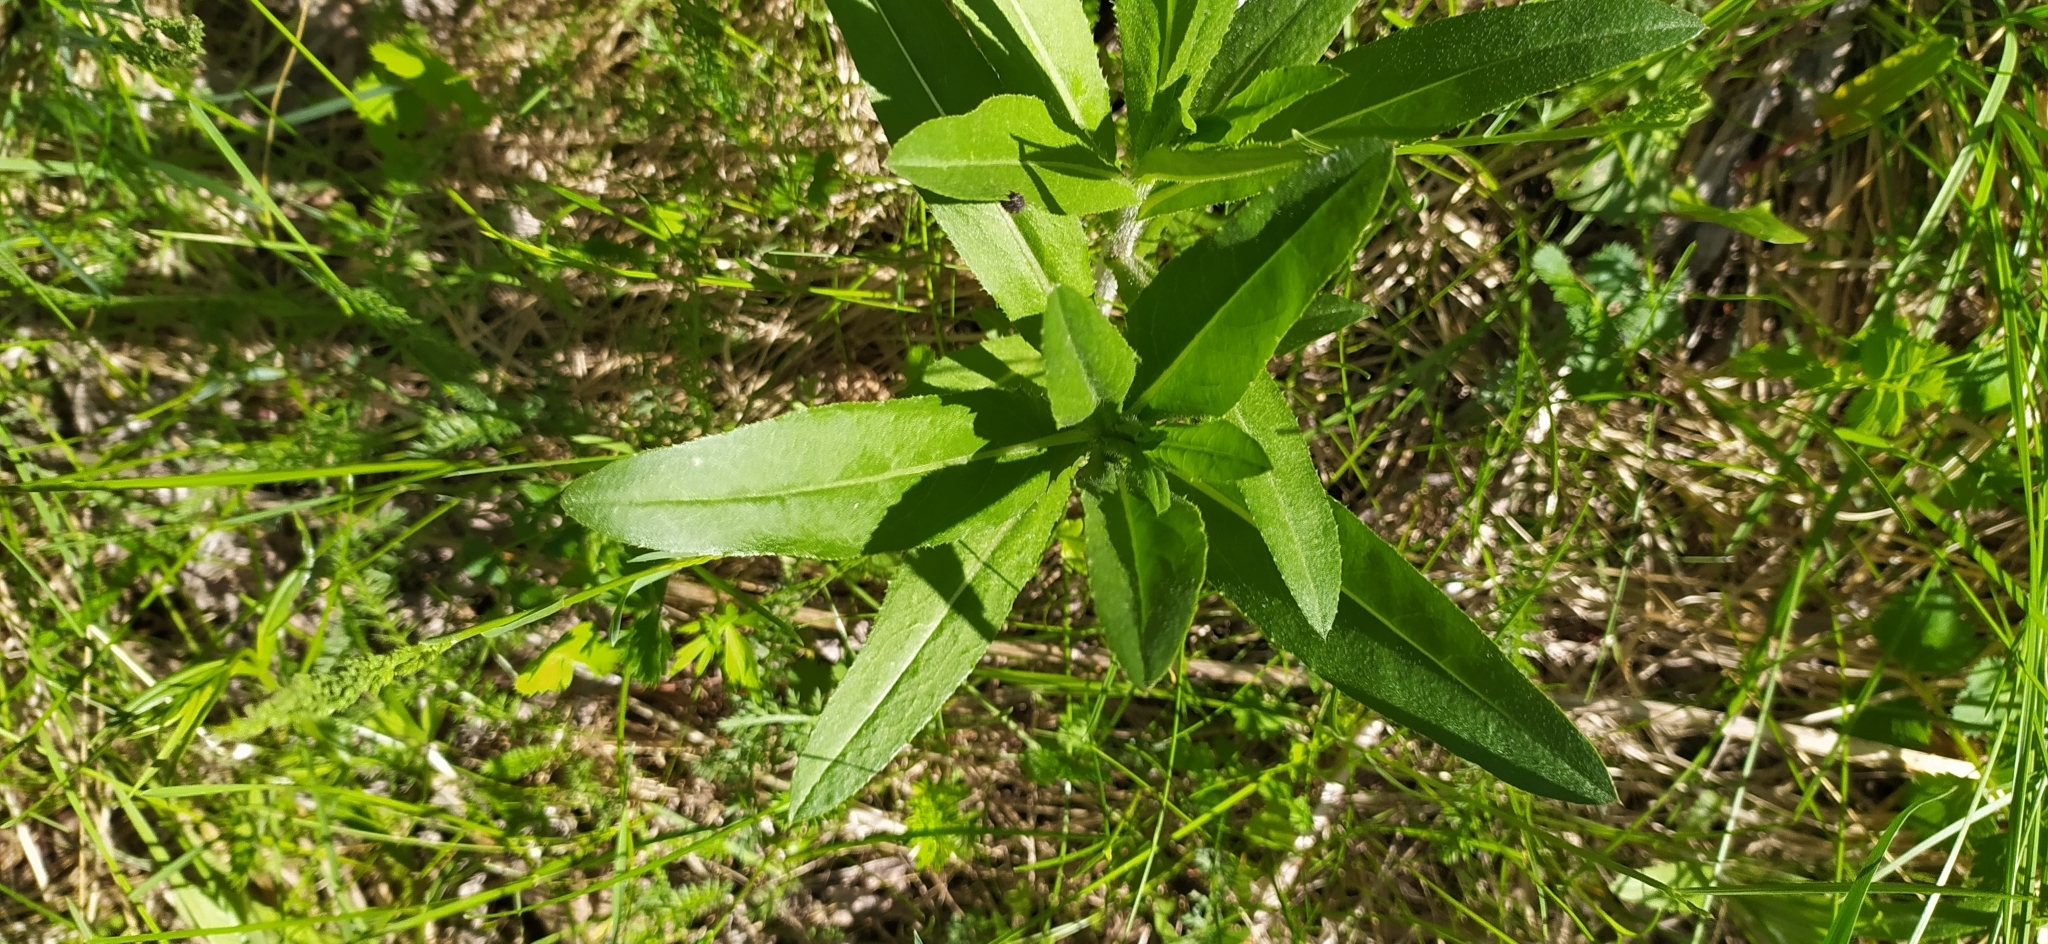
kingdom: Plantae
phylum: Tracheophyta
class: Magnoliopsida
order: Asterales
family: Asteraceae
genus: Cirsium
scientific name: Cirsium arvense
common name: Creeping thistle
